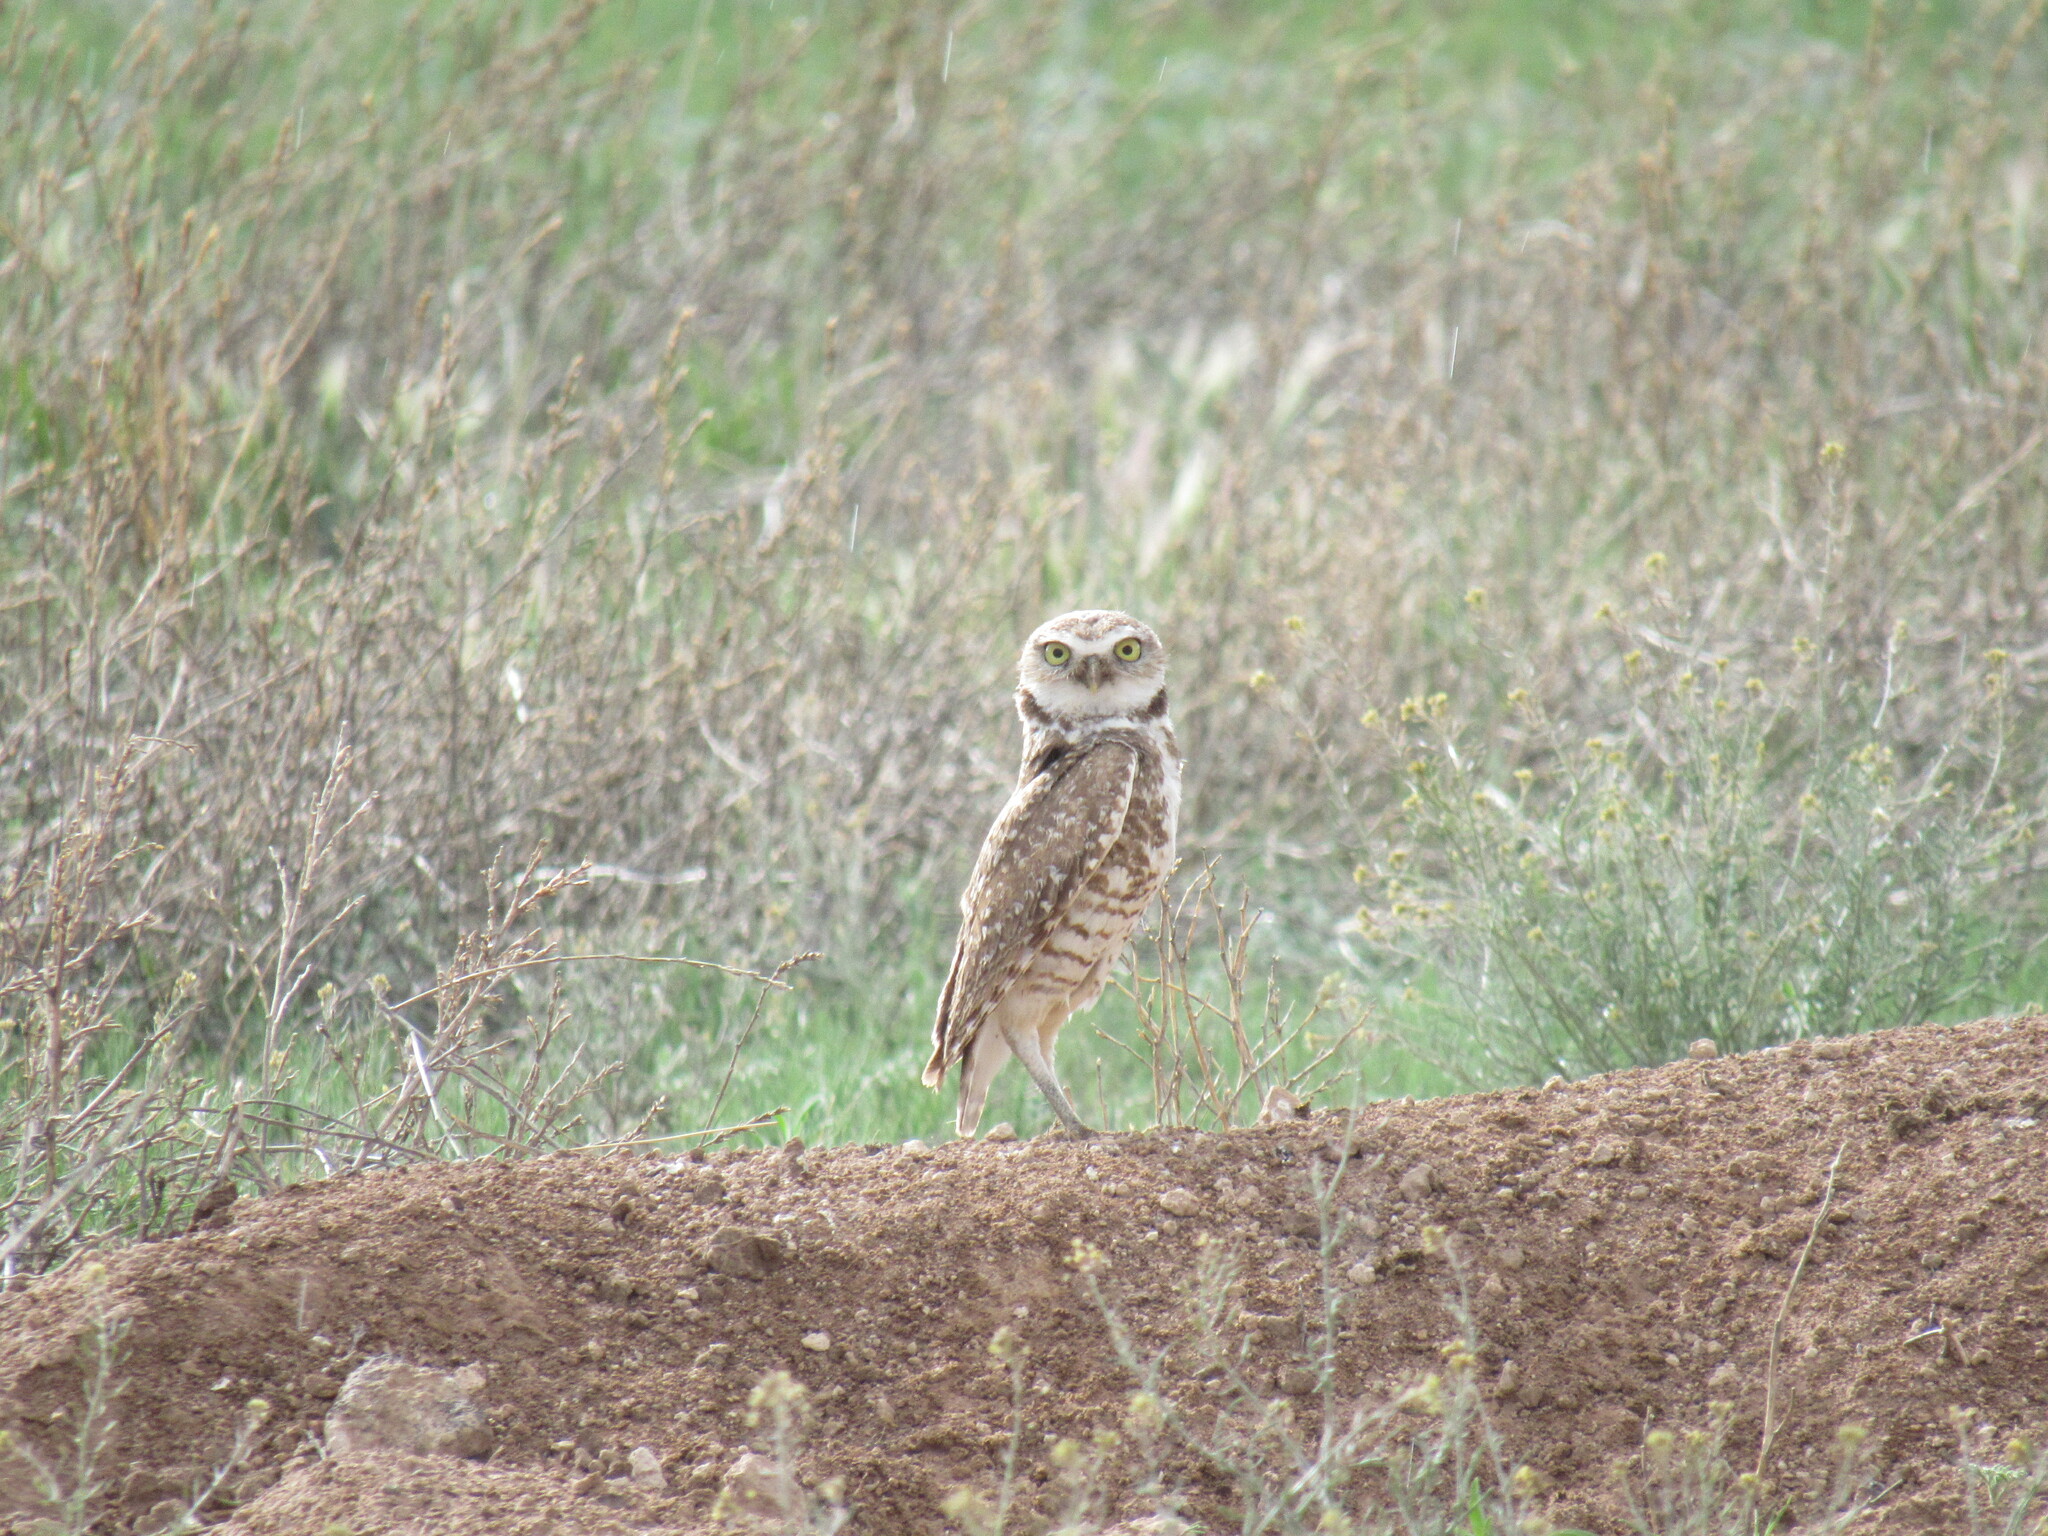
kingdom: Animalia
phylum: Chordata
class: Aves
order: Strigiformes
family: Strigidae
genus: Athene
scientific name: Athene cunicularia
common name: Burrowing owl
